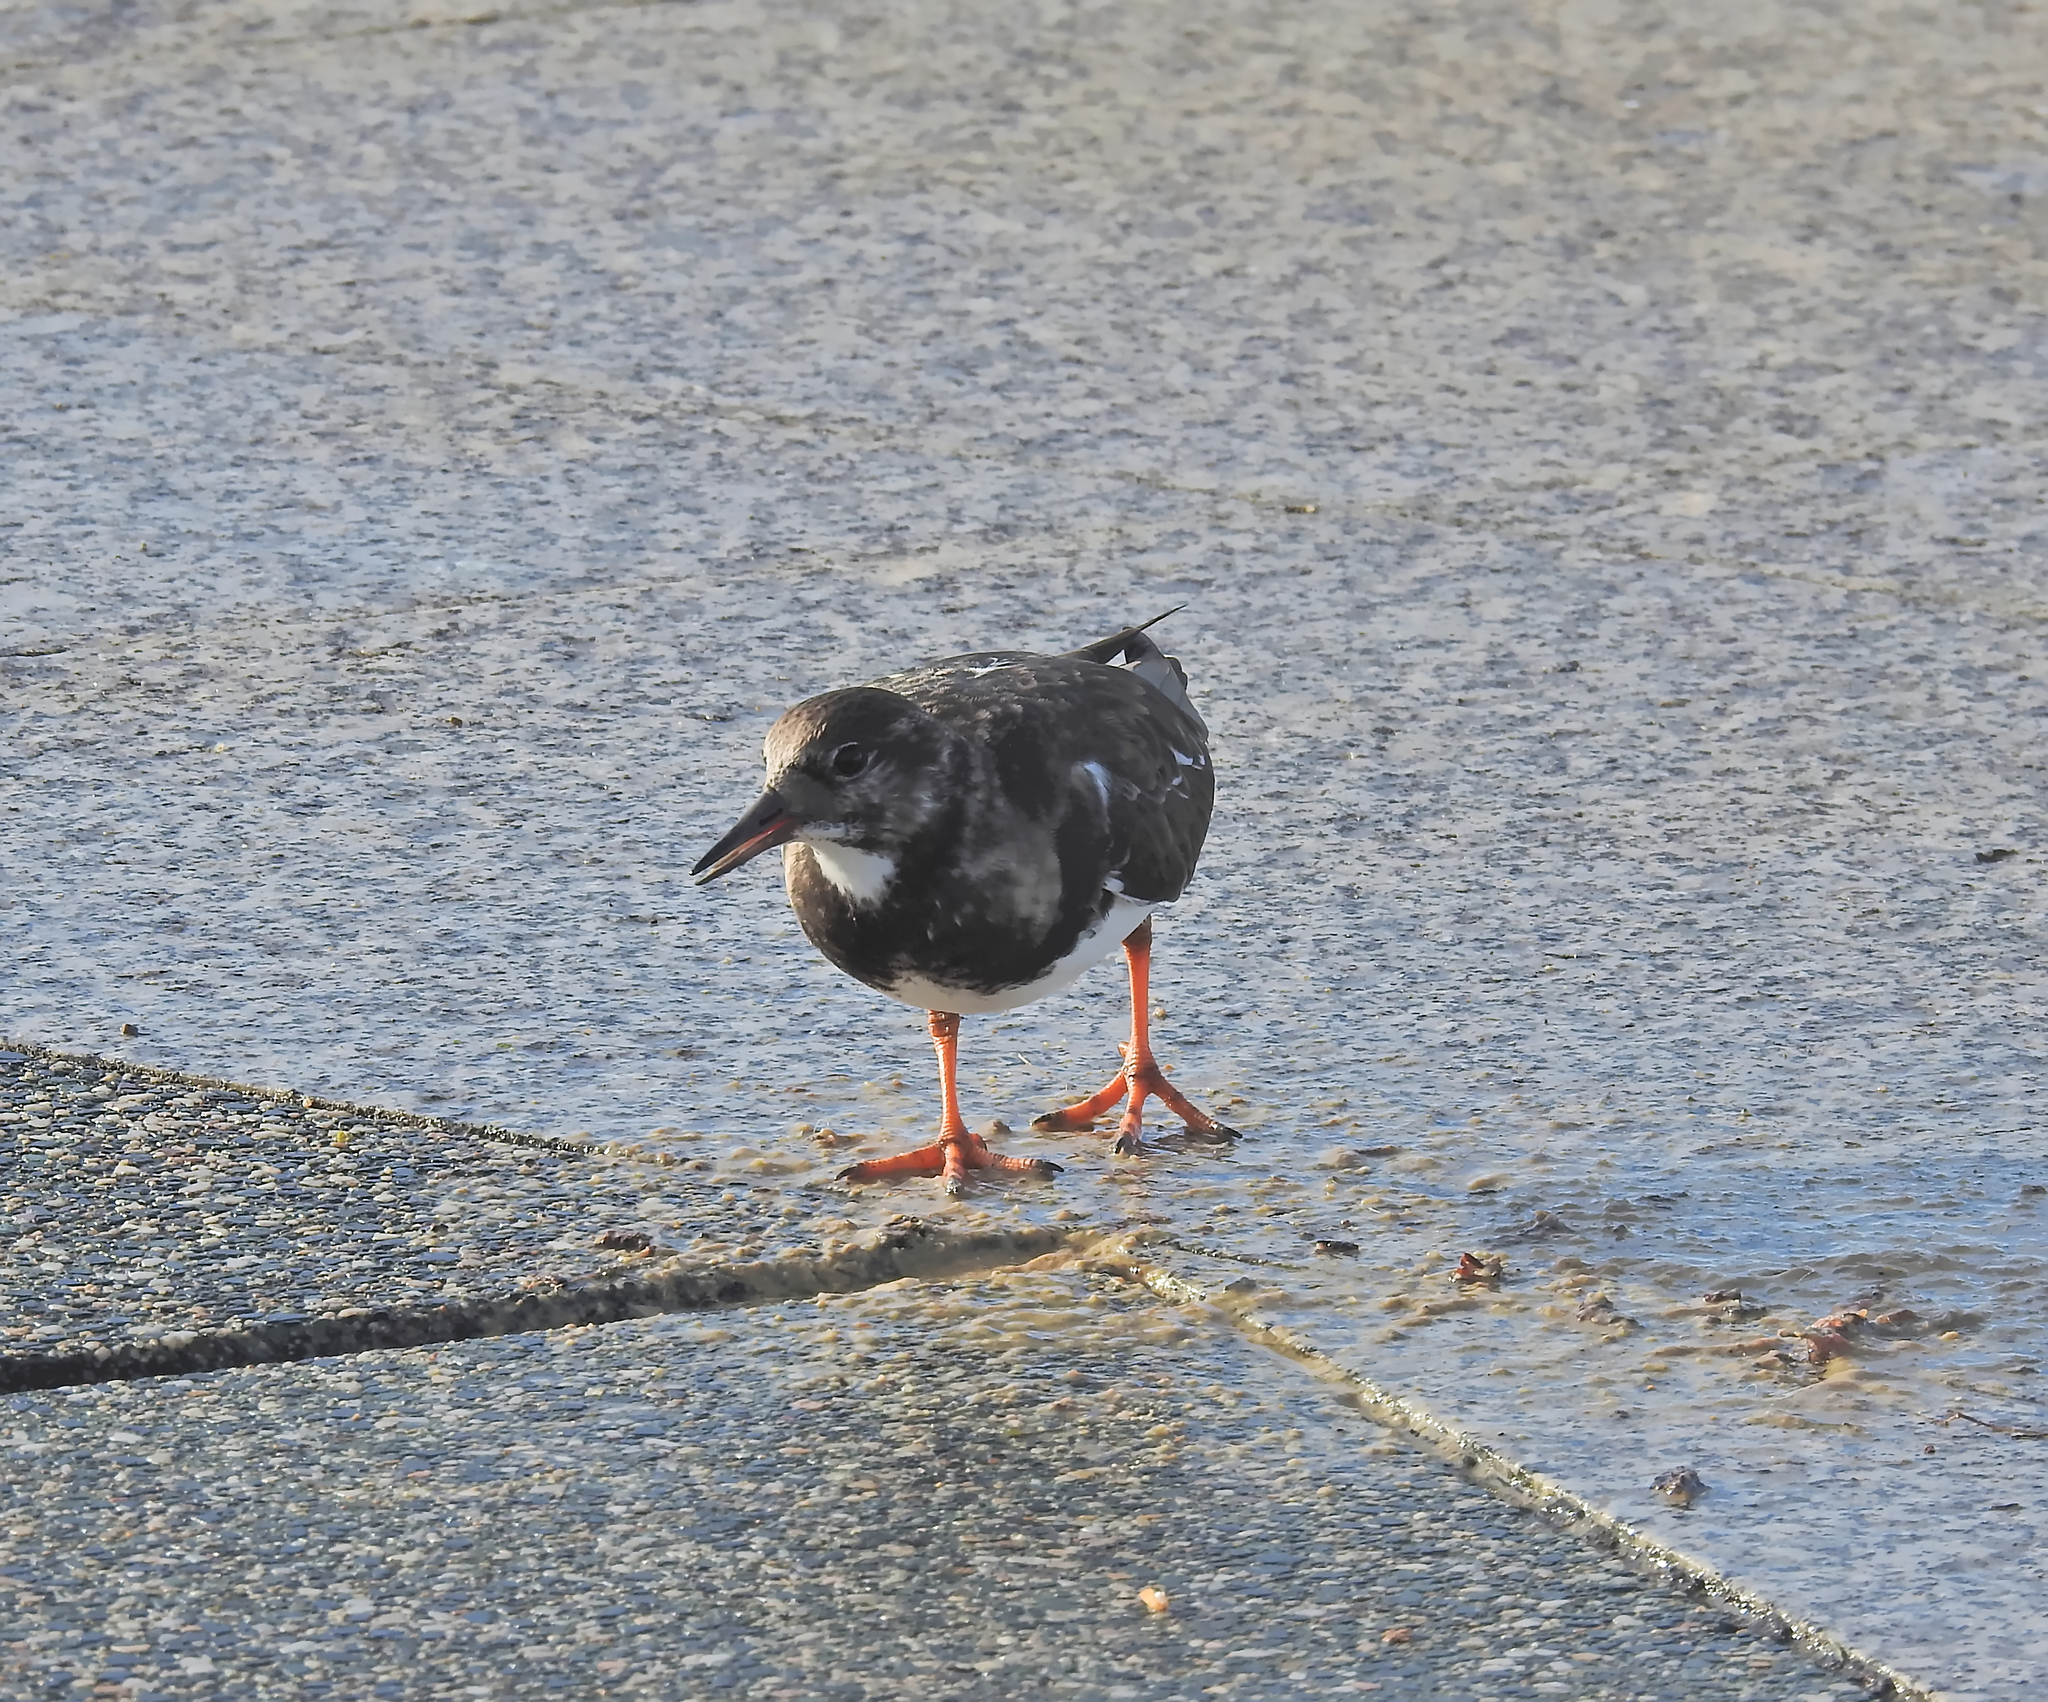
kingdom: Animalia
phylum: Chordata
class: Aves
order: Charadriiformes
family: Scolopacidae
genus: Arenaria
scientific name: Arenaria interpres
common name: Ruddy turnstone
